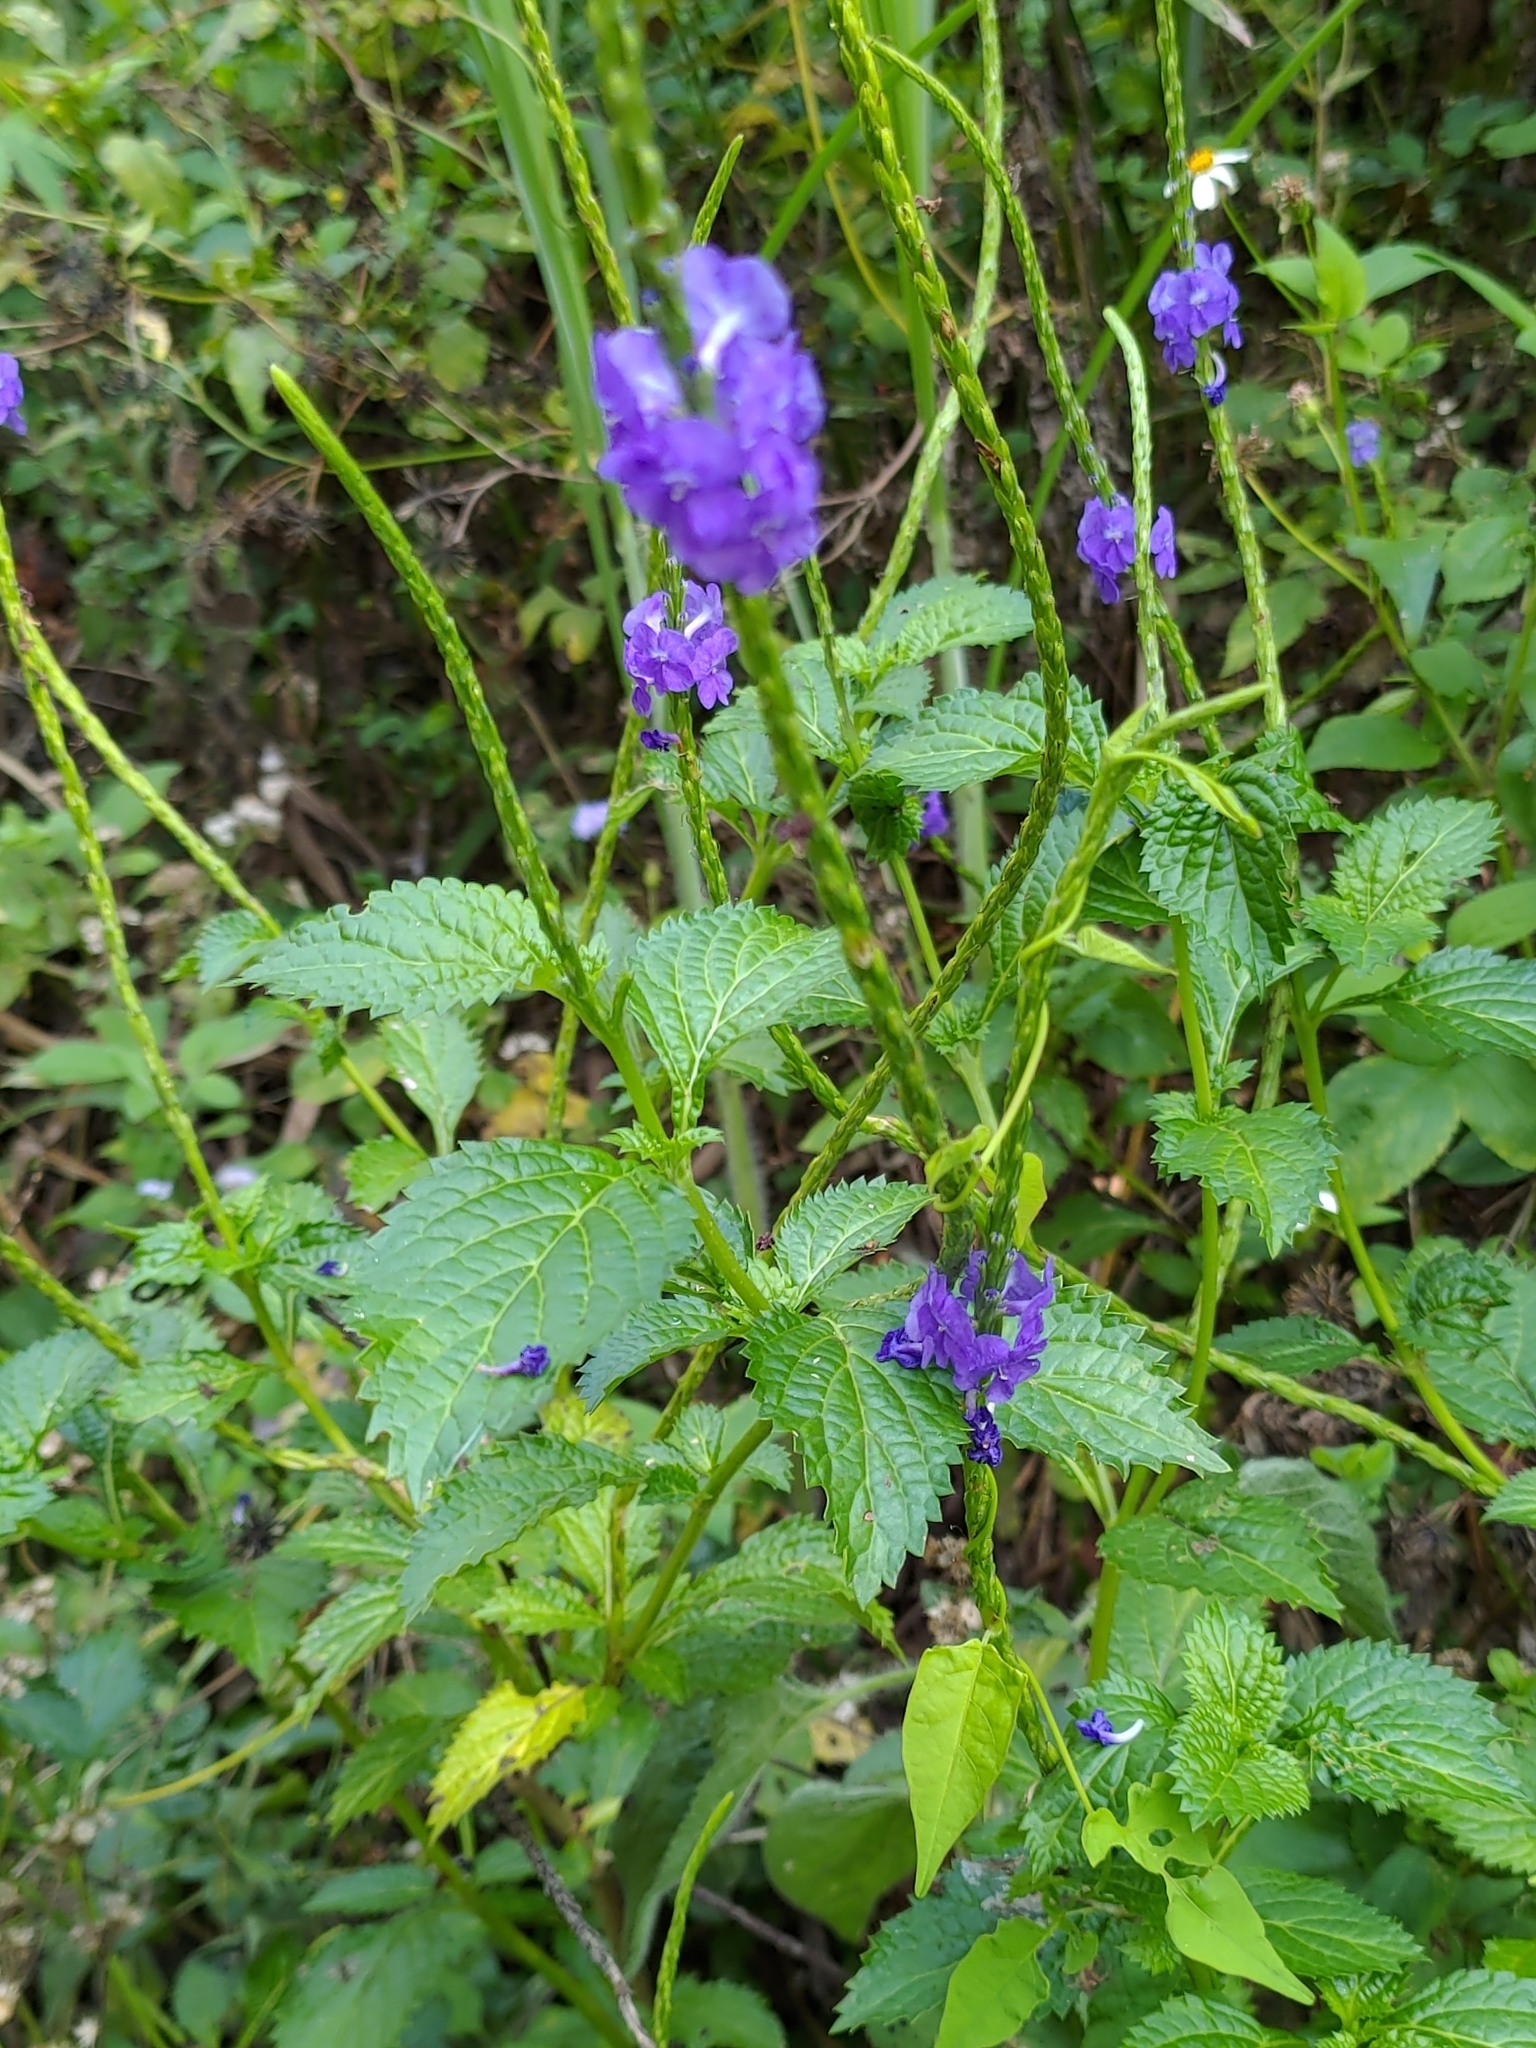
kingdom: Plantae
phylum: Tracheophyta
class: Magnoliopsida
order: Lamiales
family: Verbenaceae
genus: Stachytarpheta
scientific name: Stachytarpheta urticifolia
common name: Nettleleaf velvetberry
